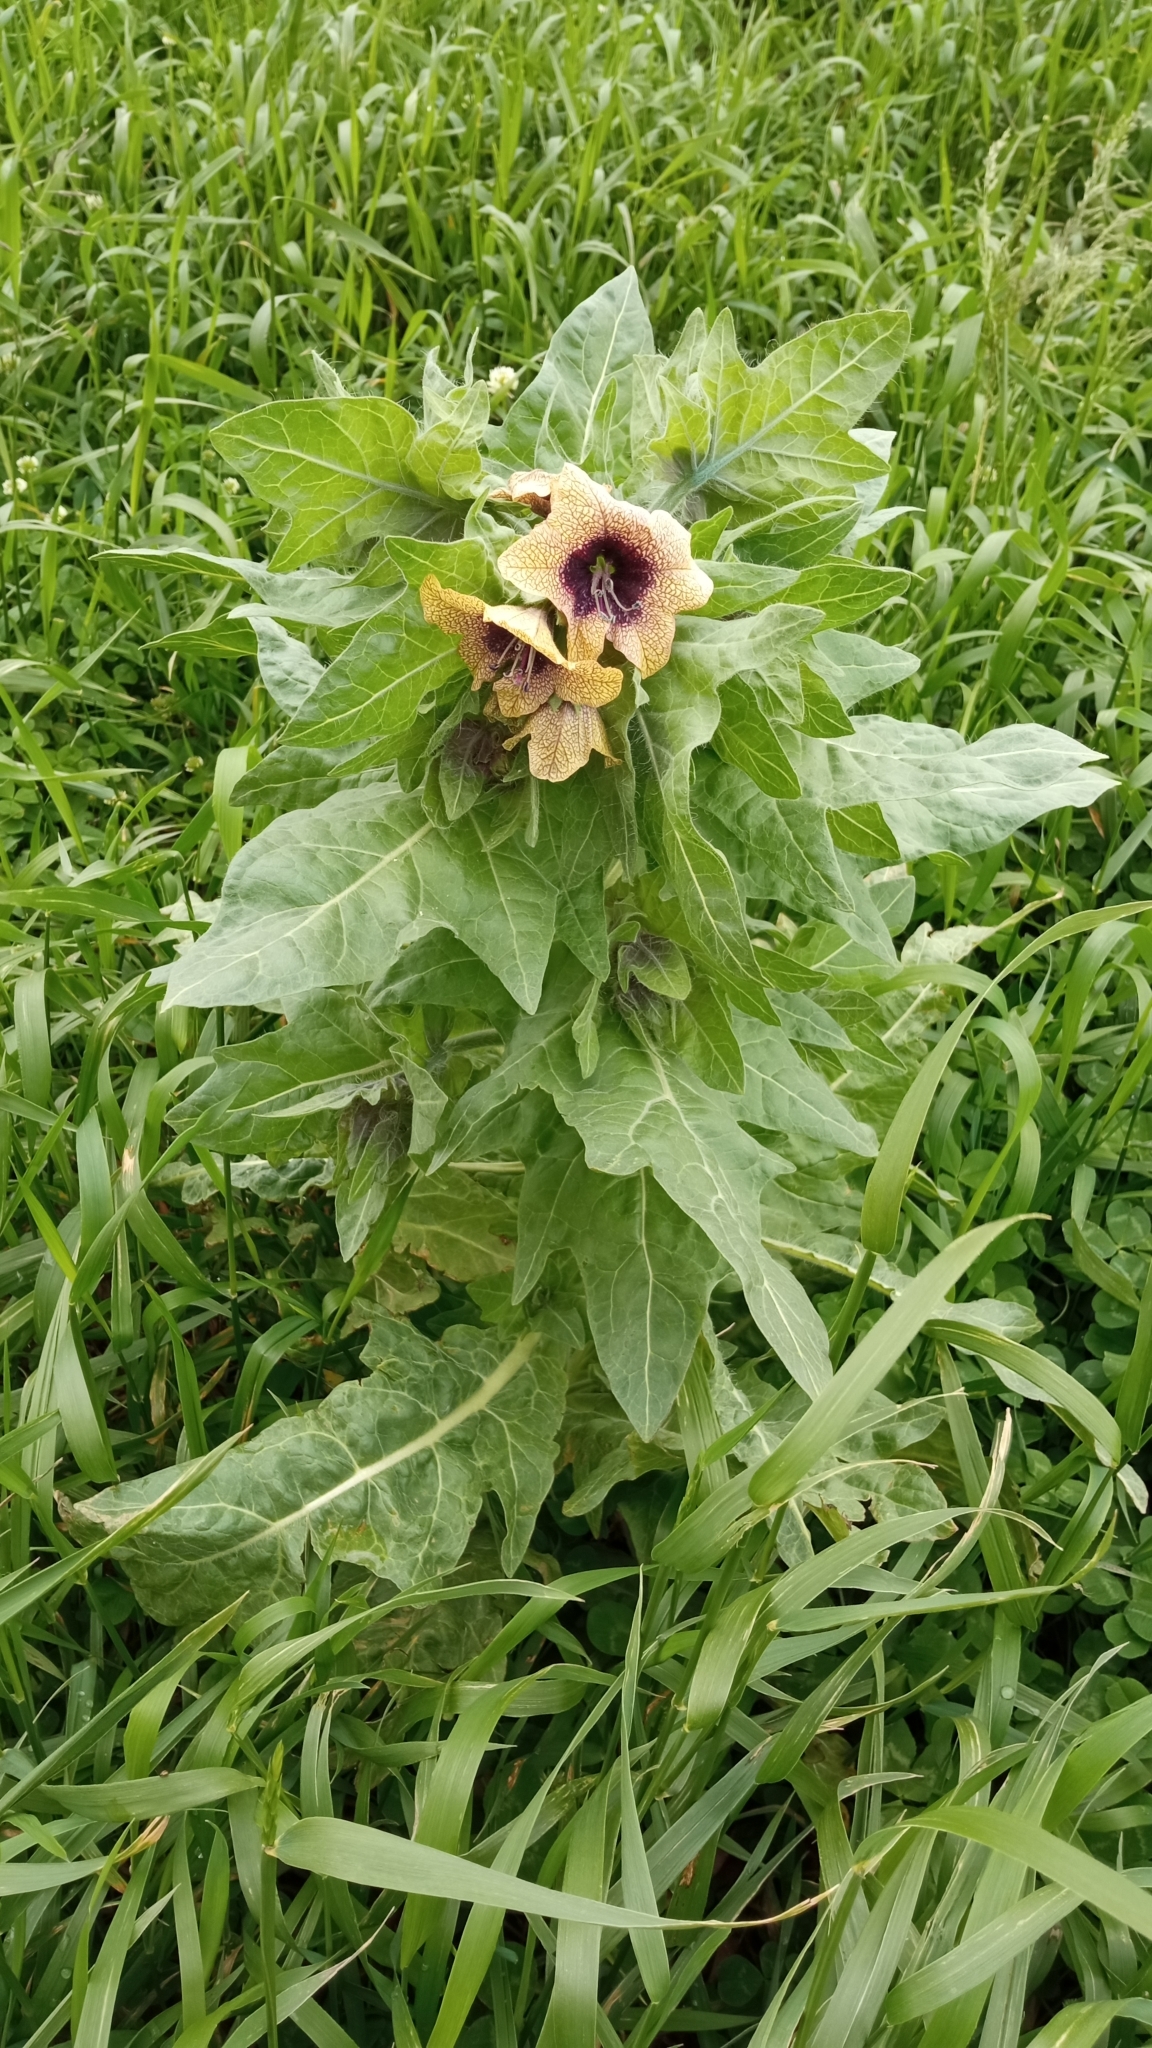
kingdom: Plantae
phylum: Tracheophyta
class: Magnoliopsida
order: Solanales
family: Solanaceae
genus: Hyoscyamus
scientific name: Hyoscyamus niger
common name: Henbane
